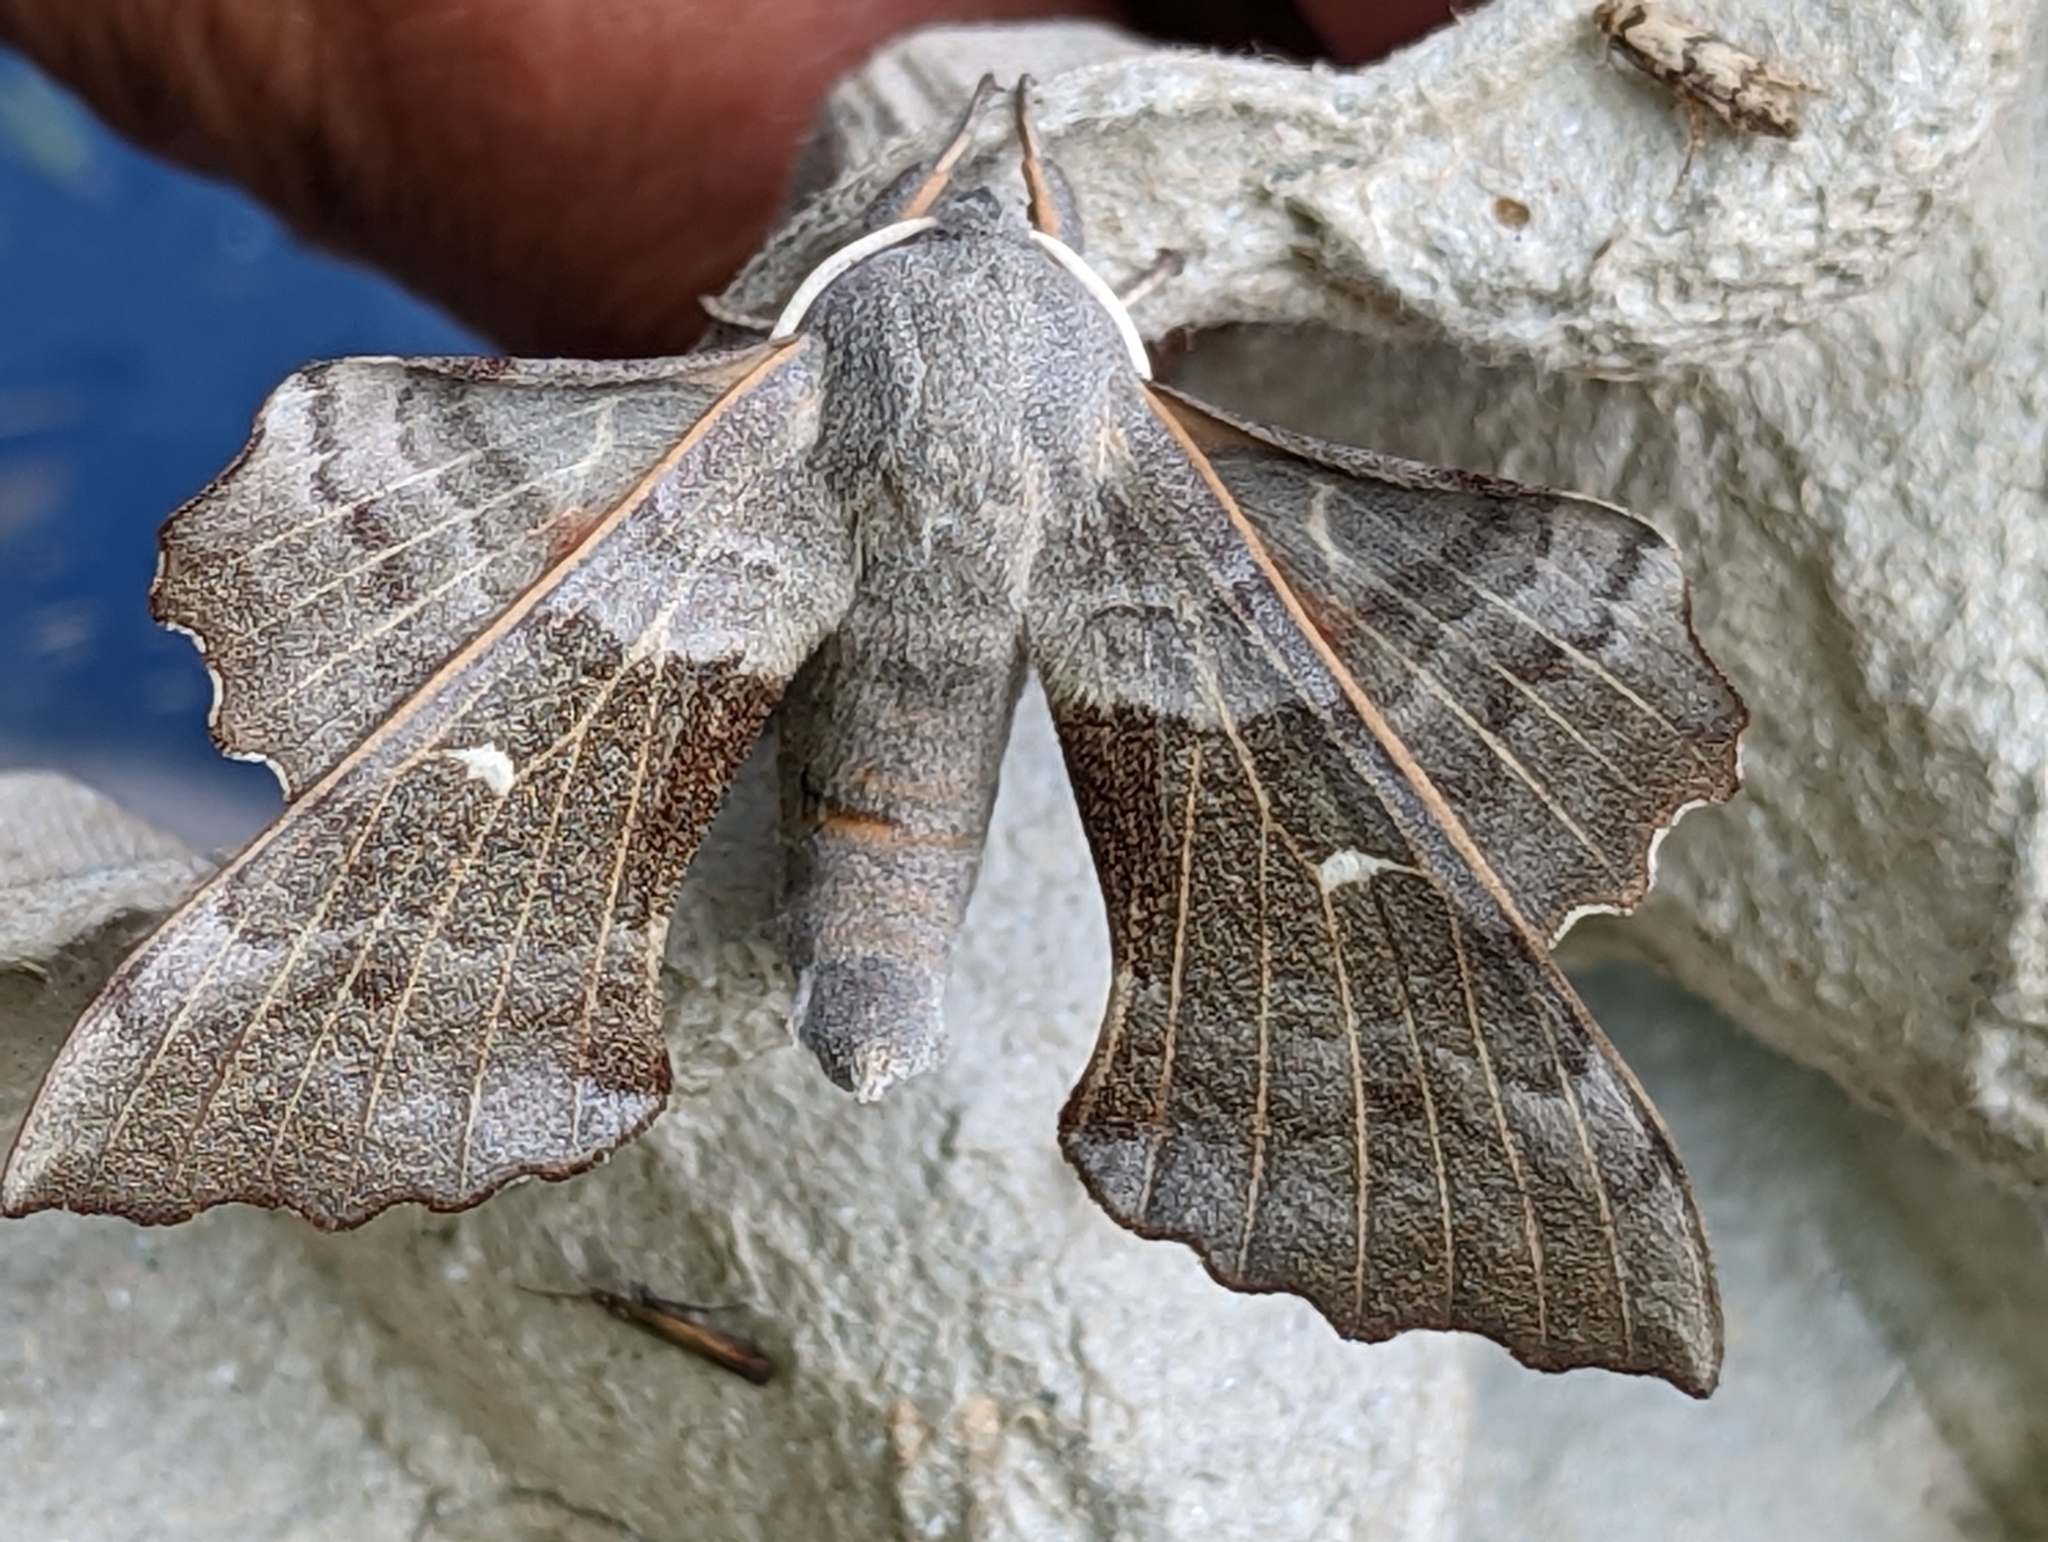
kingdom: Animalia
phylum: Arthropoda
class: Insecta
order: Lepidoptera
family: Sphingidae
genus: Laothoe
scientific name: Laothoe populi
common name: Poplar hawk-moth
